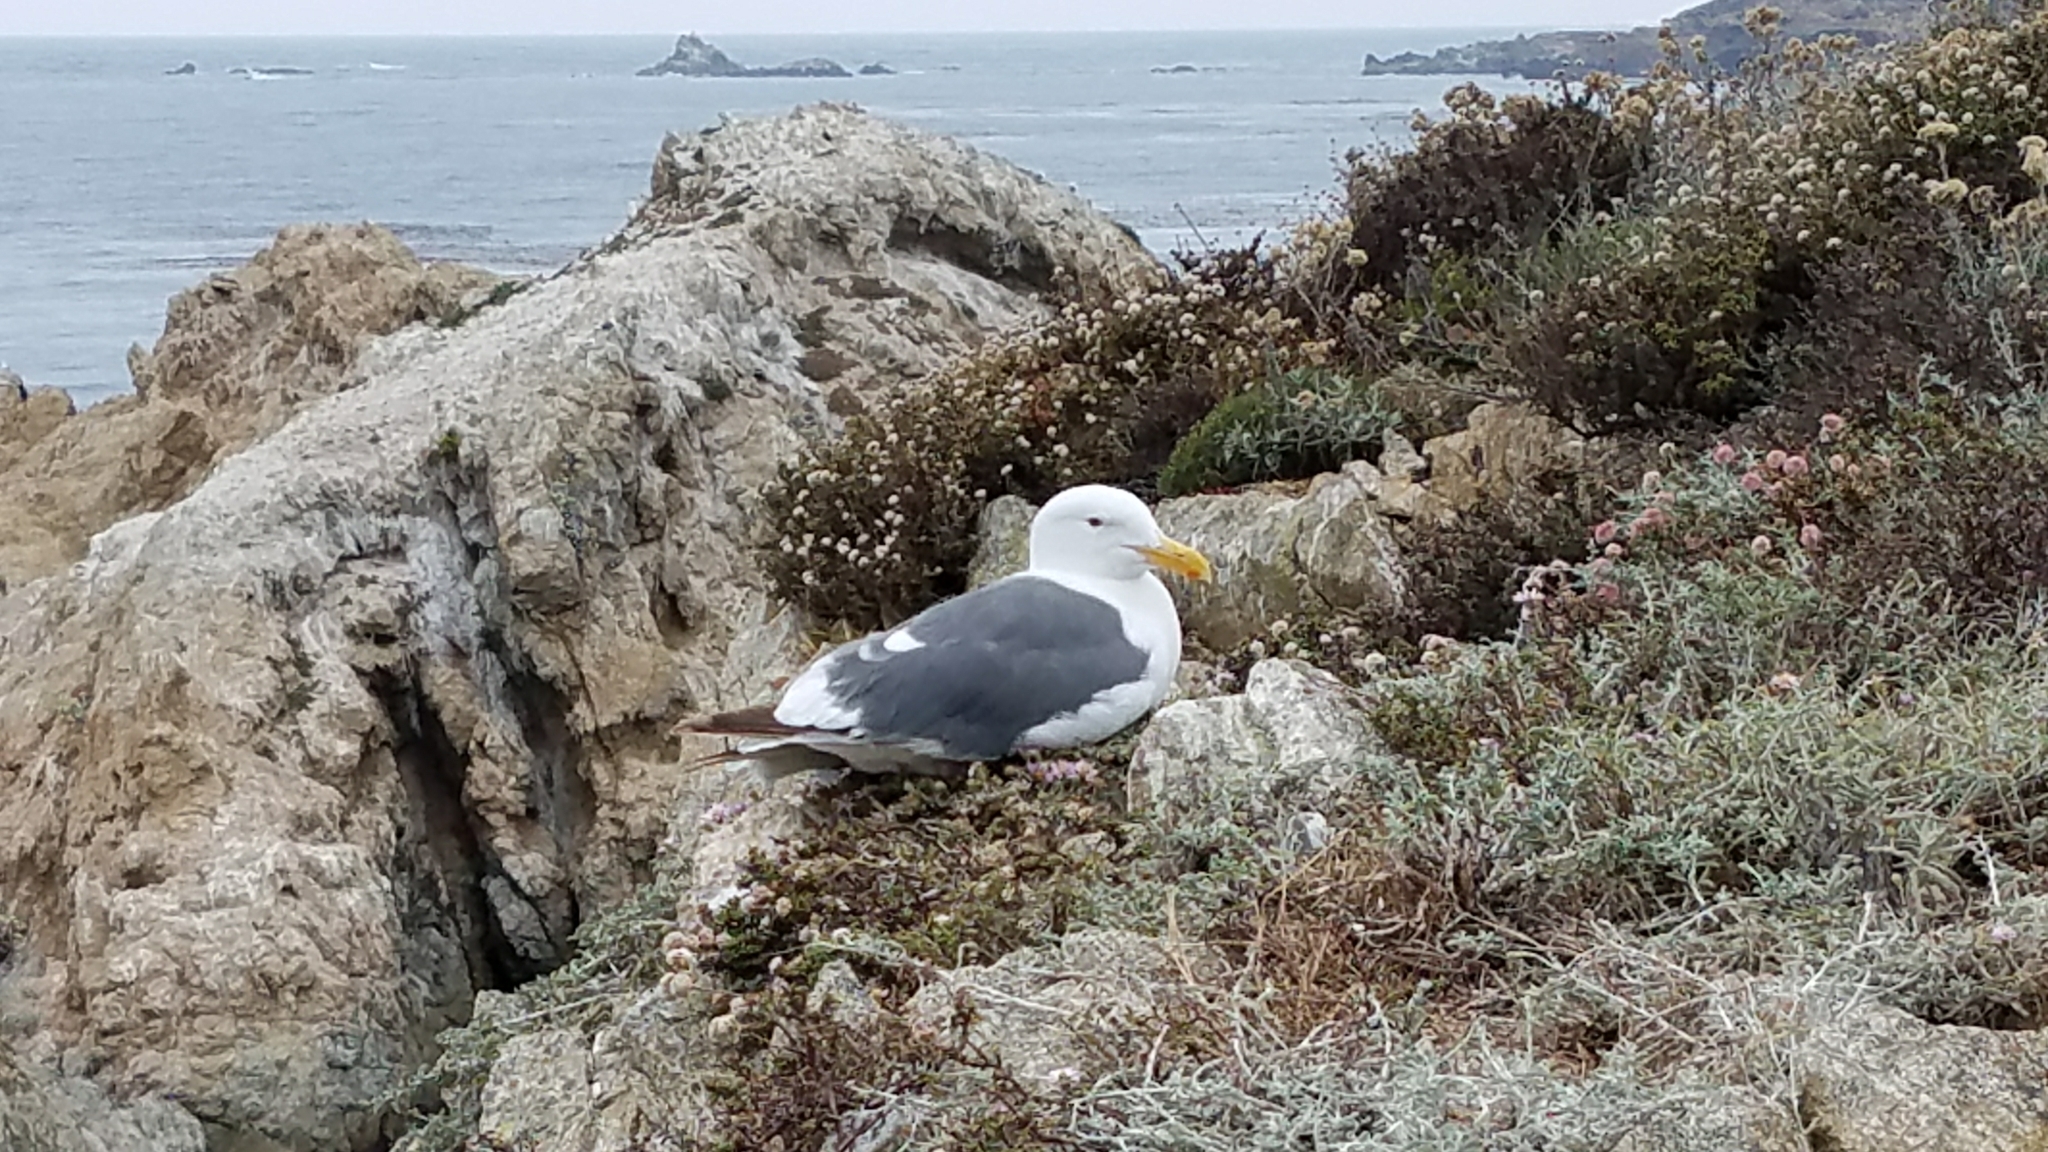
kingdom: Animalia
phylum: Chordata
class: Aves
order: Charadriiformes
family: Laridae
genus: Larus
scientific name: Larus occidentalis
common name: Western gull
